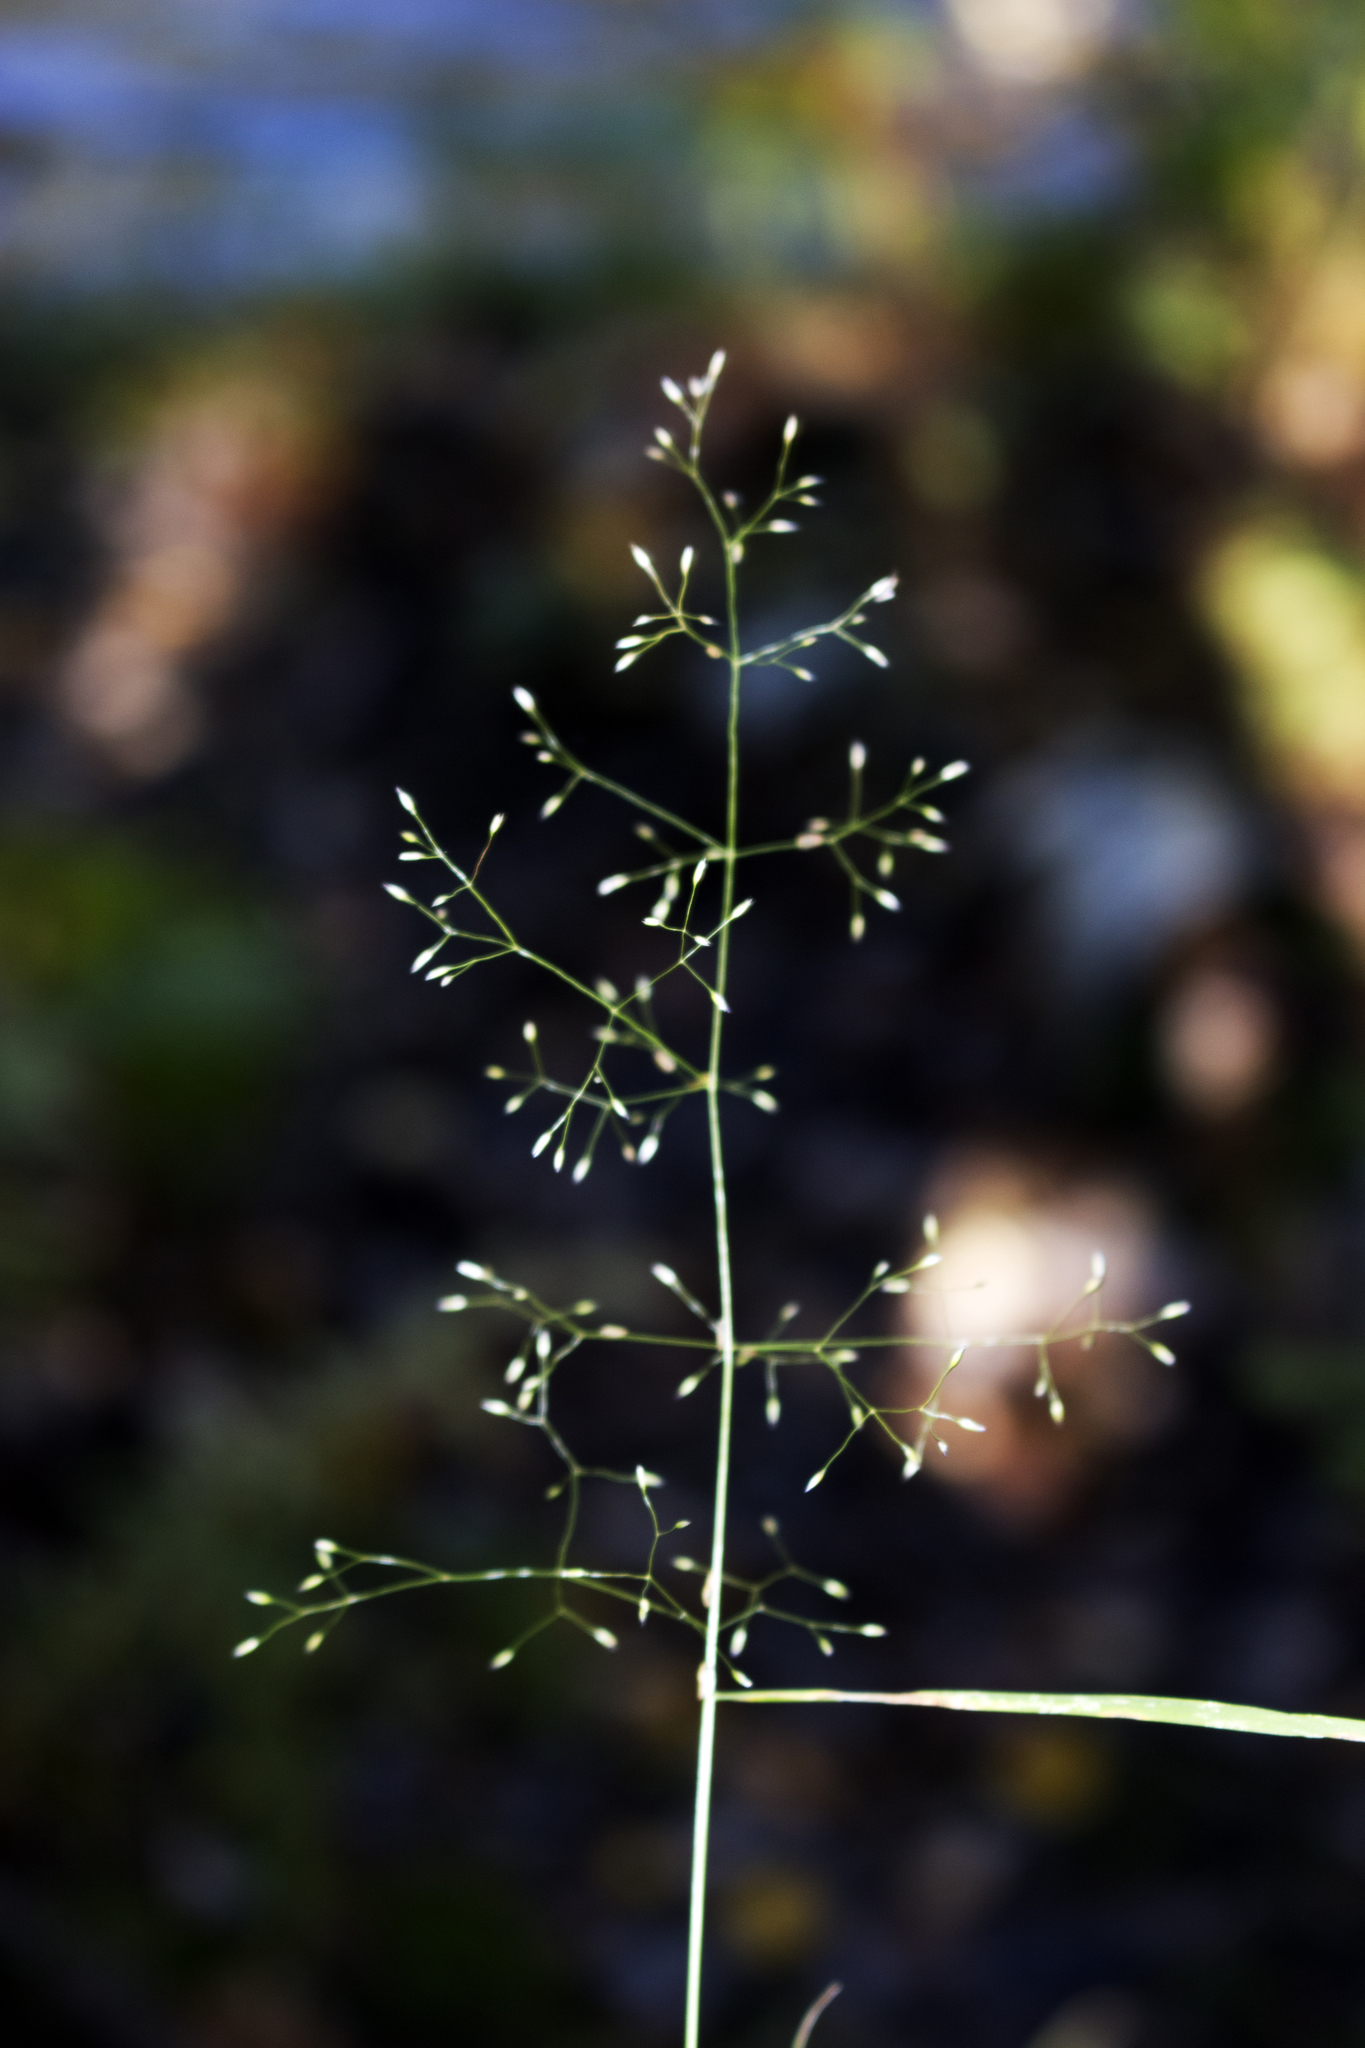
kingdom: Plantae
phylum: Tracheophyta
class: Liliopsida
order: Poales
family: Poaceae
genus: Agrostis
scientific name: Agrostis perennans
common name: Autumn bent
